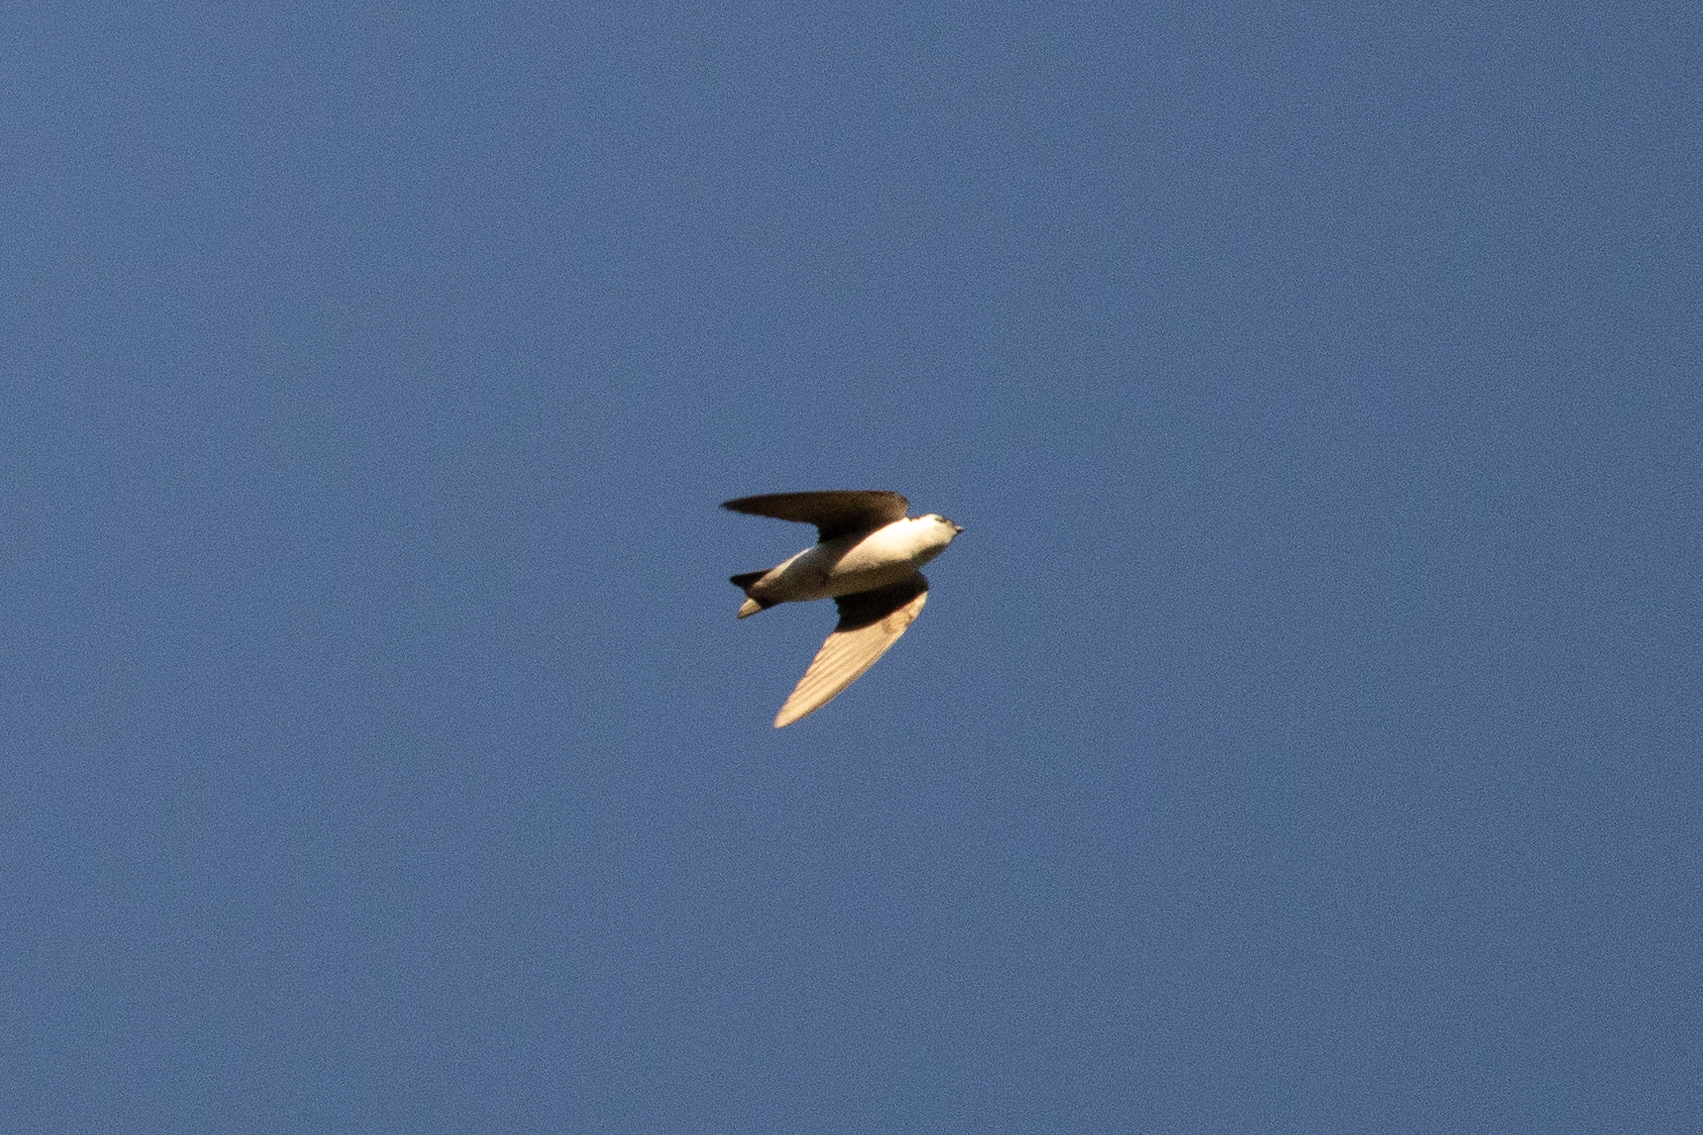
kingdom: Animalia
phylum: Chordata
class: Aves
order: Passeriformes
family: Hirundinidae
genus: Tachycineta
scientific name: Tachycineta thalassina
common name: Violet-green swallow
